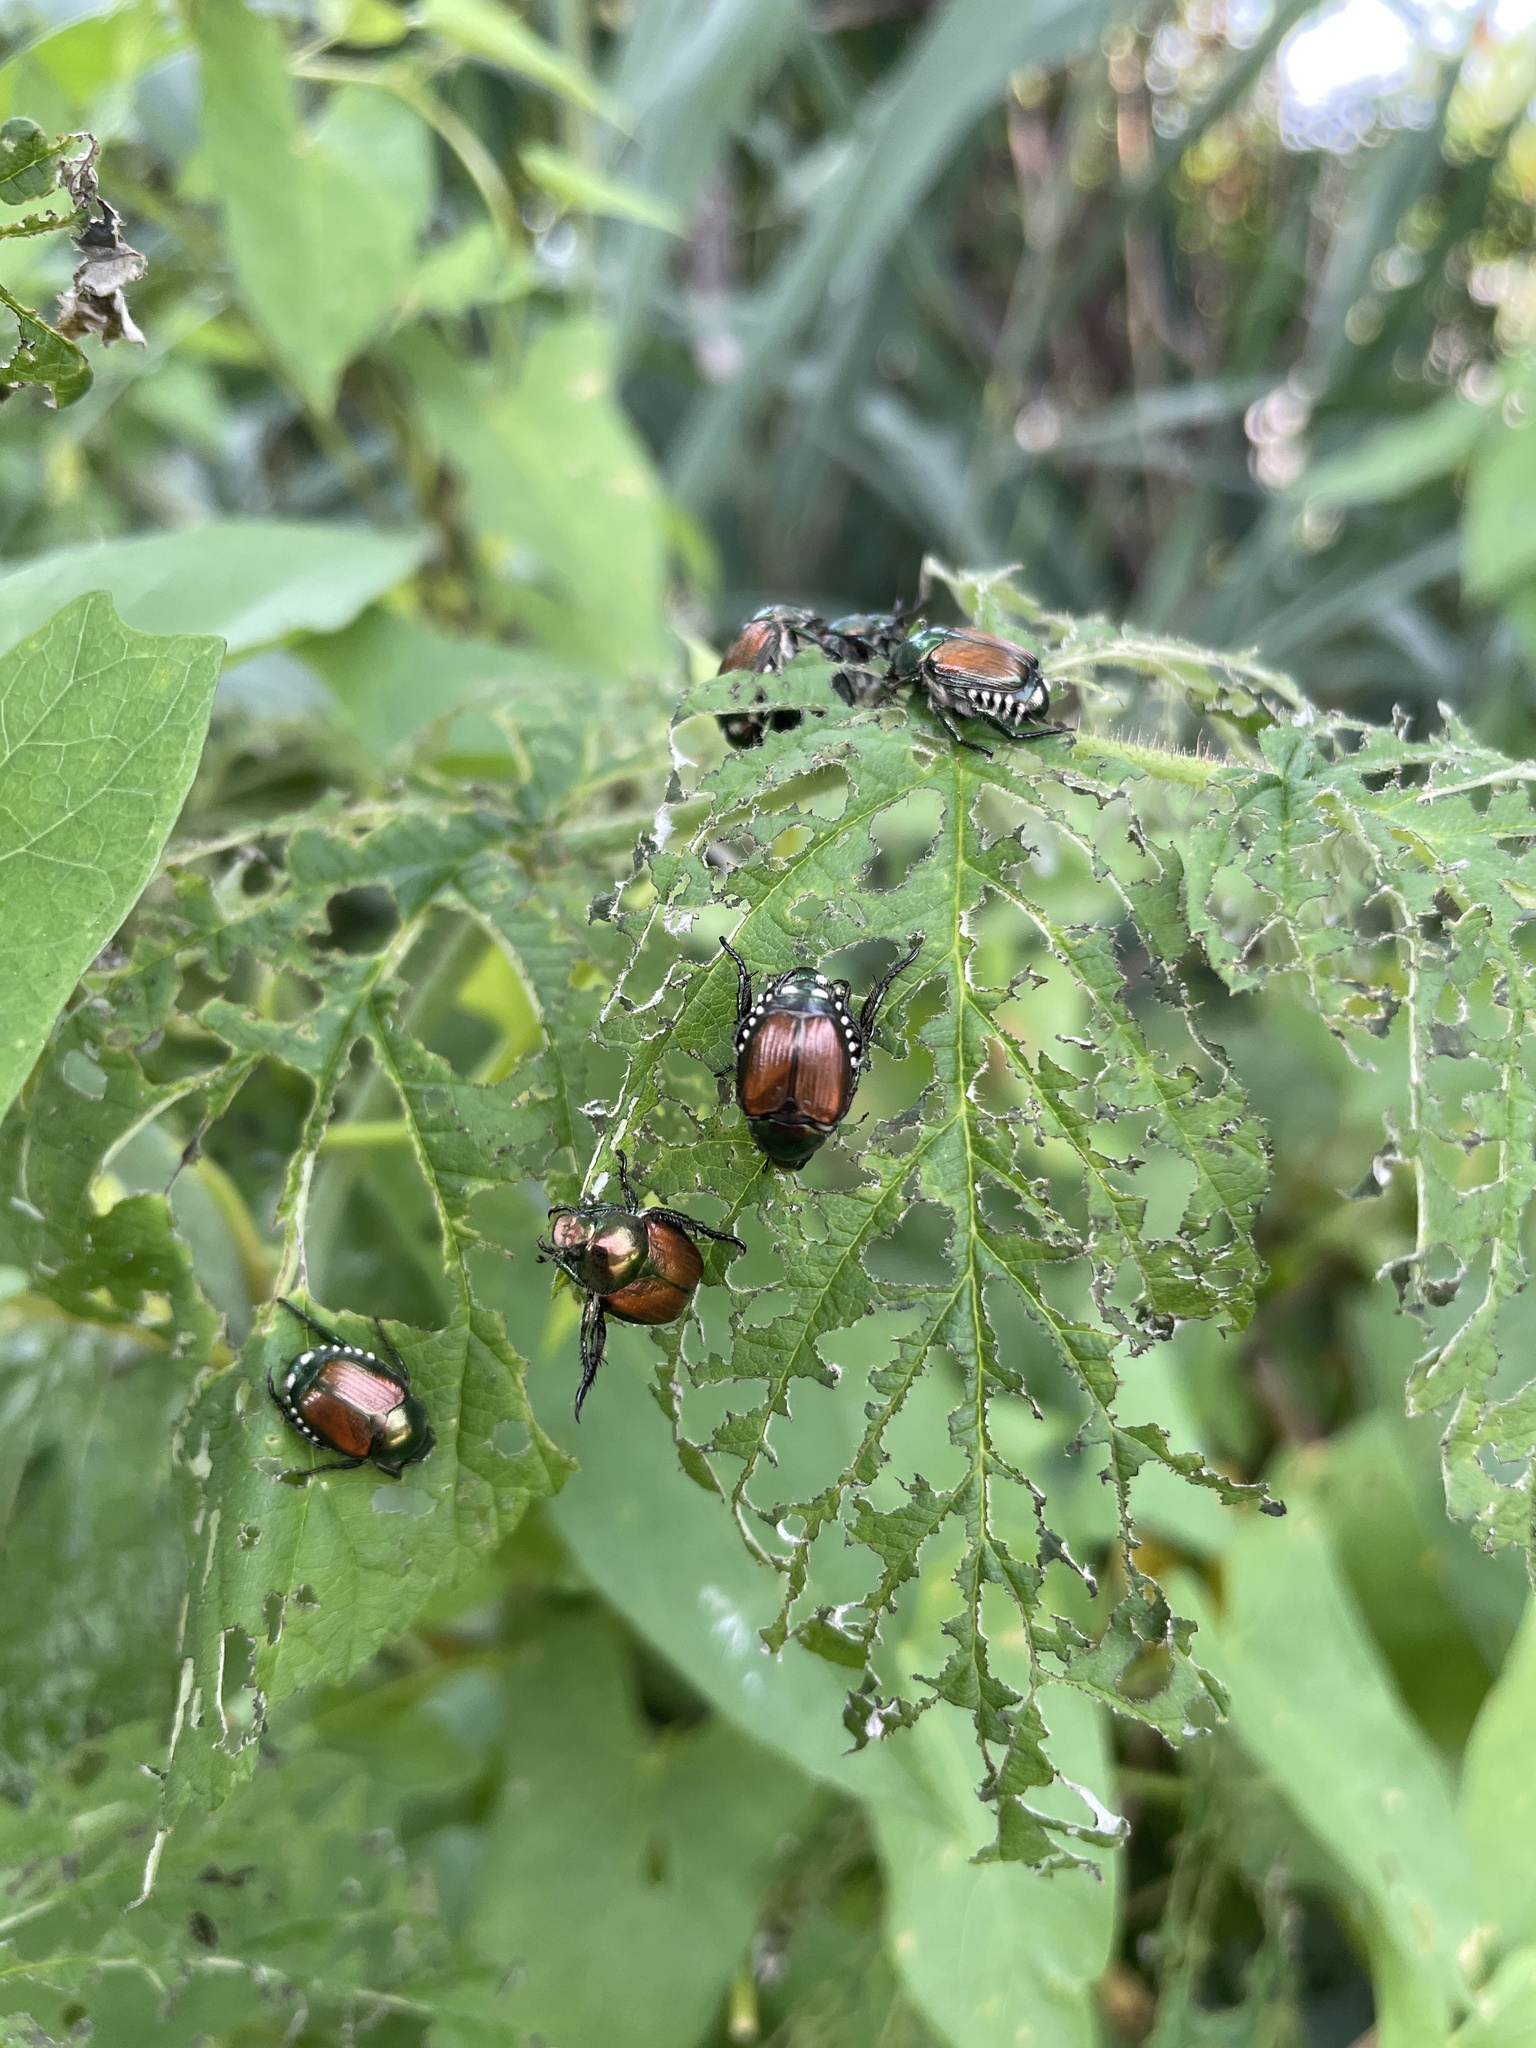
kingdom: Animalia
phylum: Arthropoda
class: Insecta
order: Coleoptera
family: Scarabaeidae
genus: Popillia
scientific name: Popillia japonica
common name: Japanese beetle
